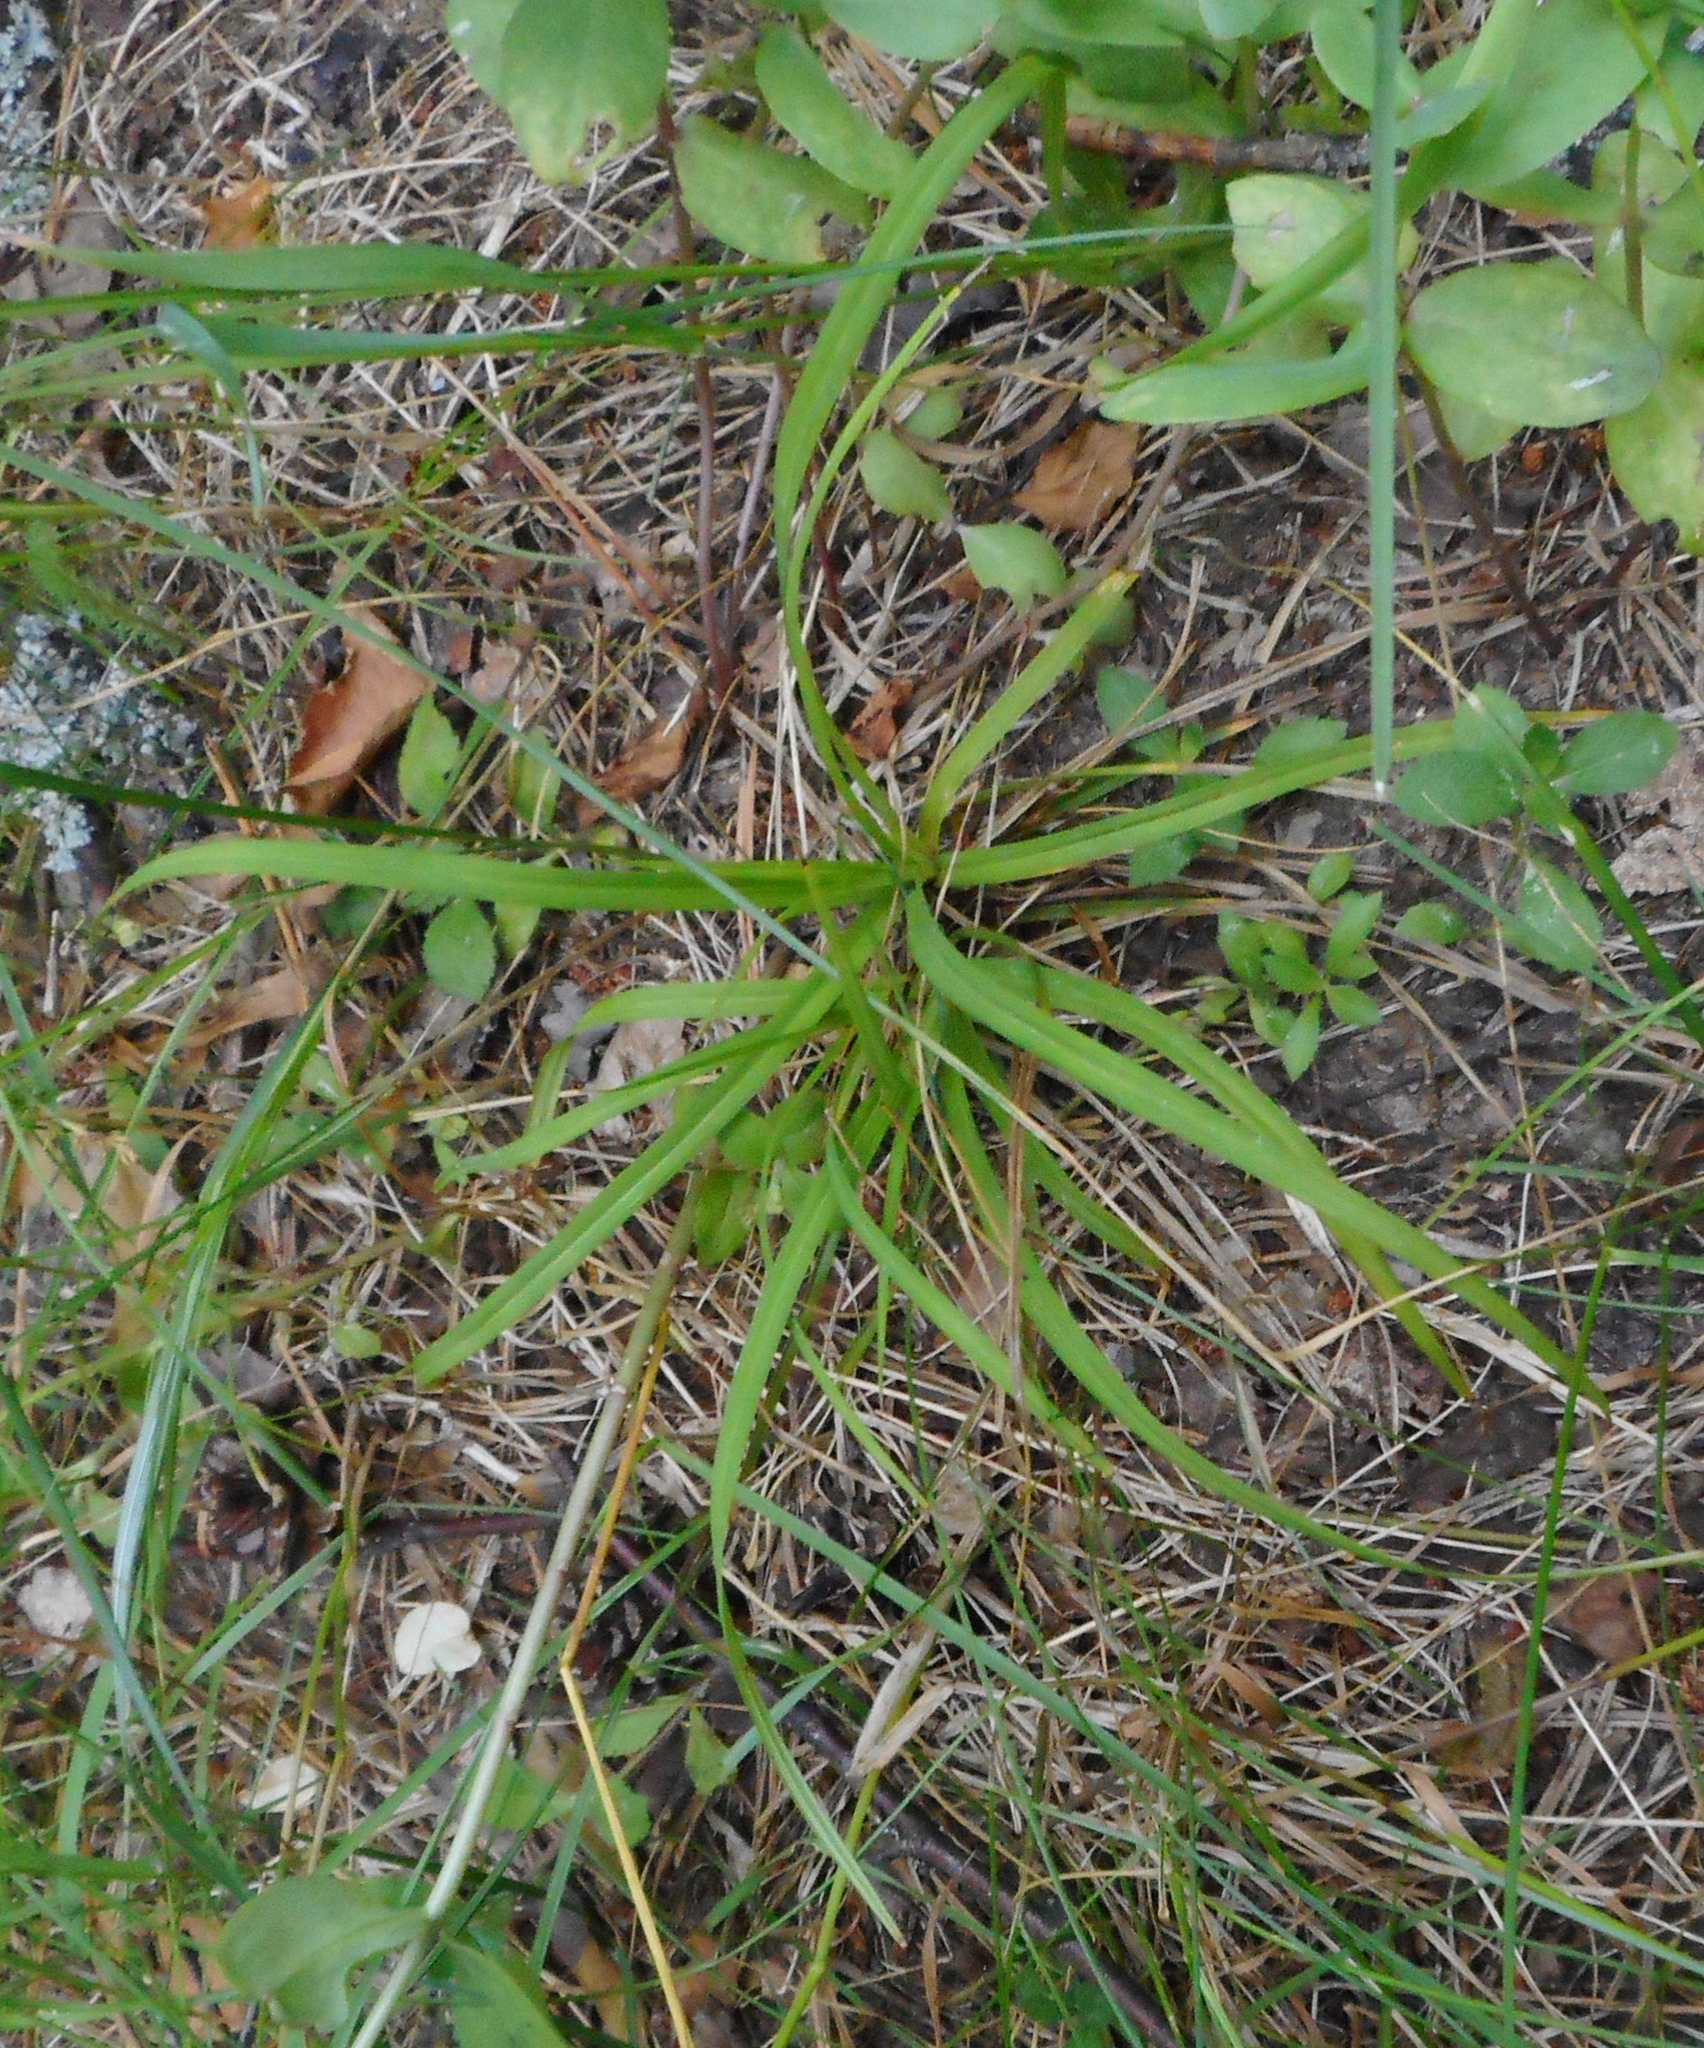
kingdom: Plantae
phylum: Tracheophyta
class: Liliopsida
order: Poales
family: Juncaceae
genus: Luzula
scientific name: Luzula pilosa
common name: Hairy wood-rush
